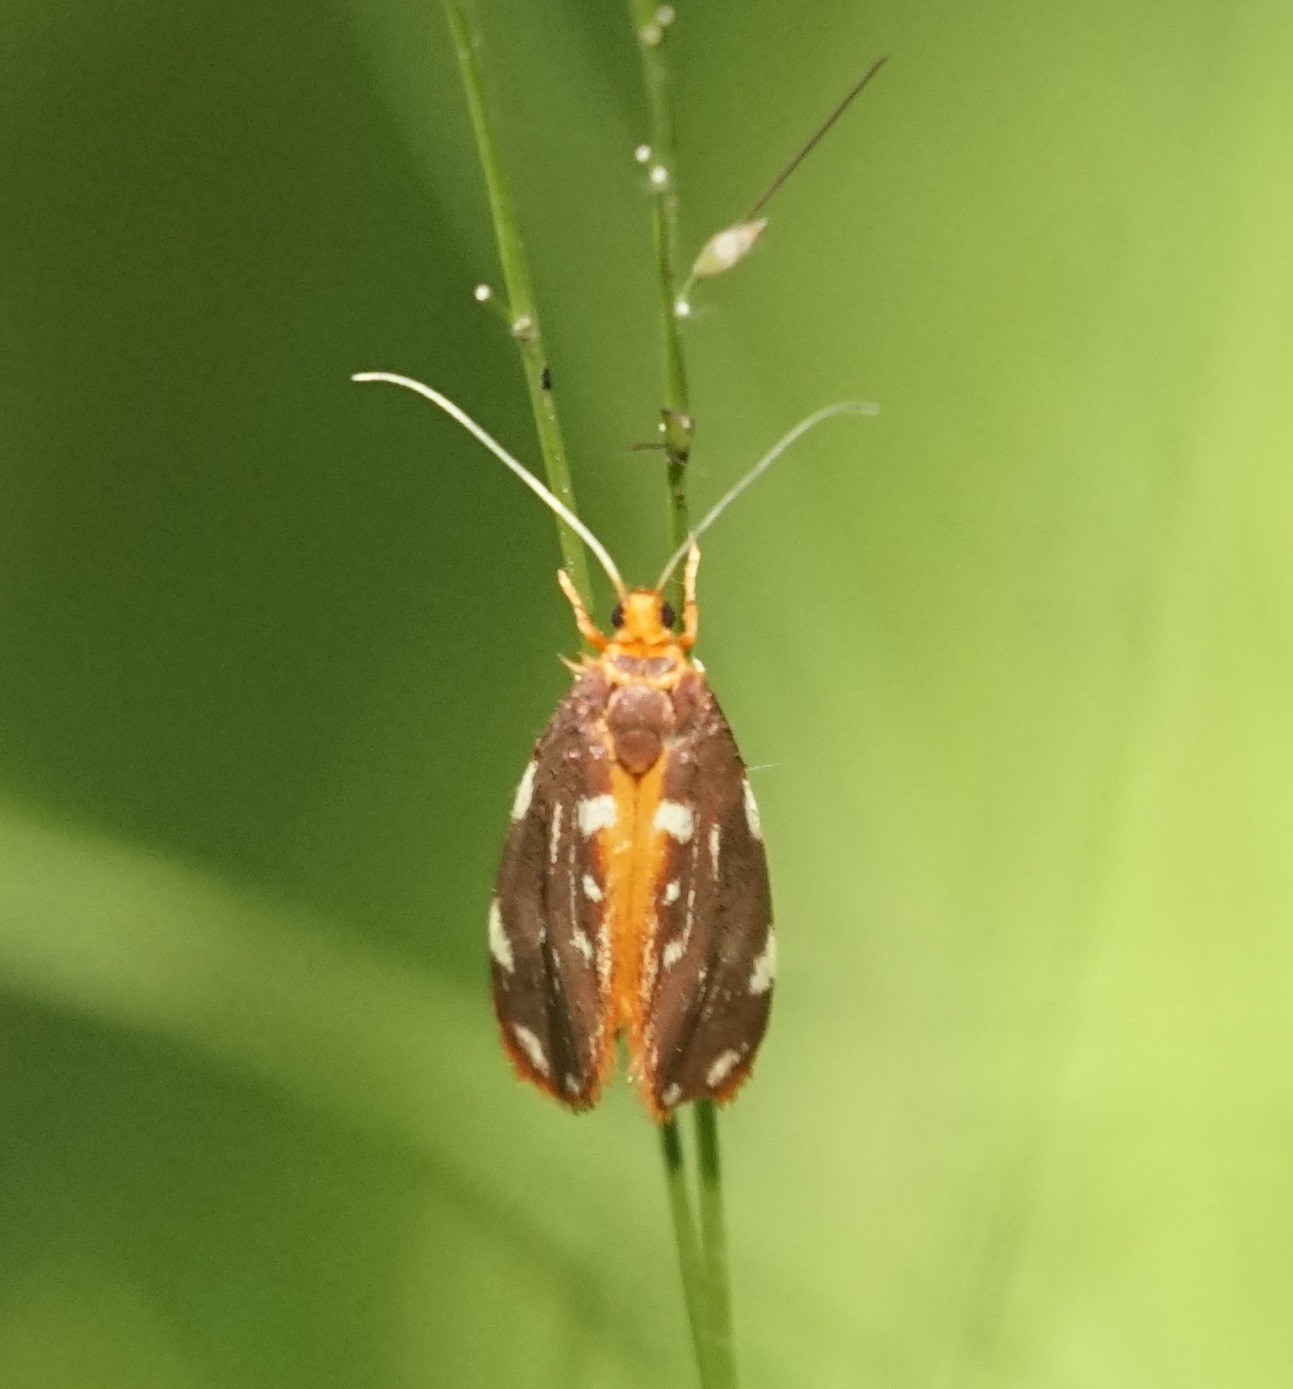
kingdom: Animalia
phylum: Arthropoda
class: Insecta
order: Lepidoptera
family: Lacturidae
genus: Lactura
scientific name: Lactura caminaea
